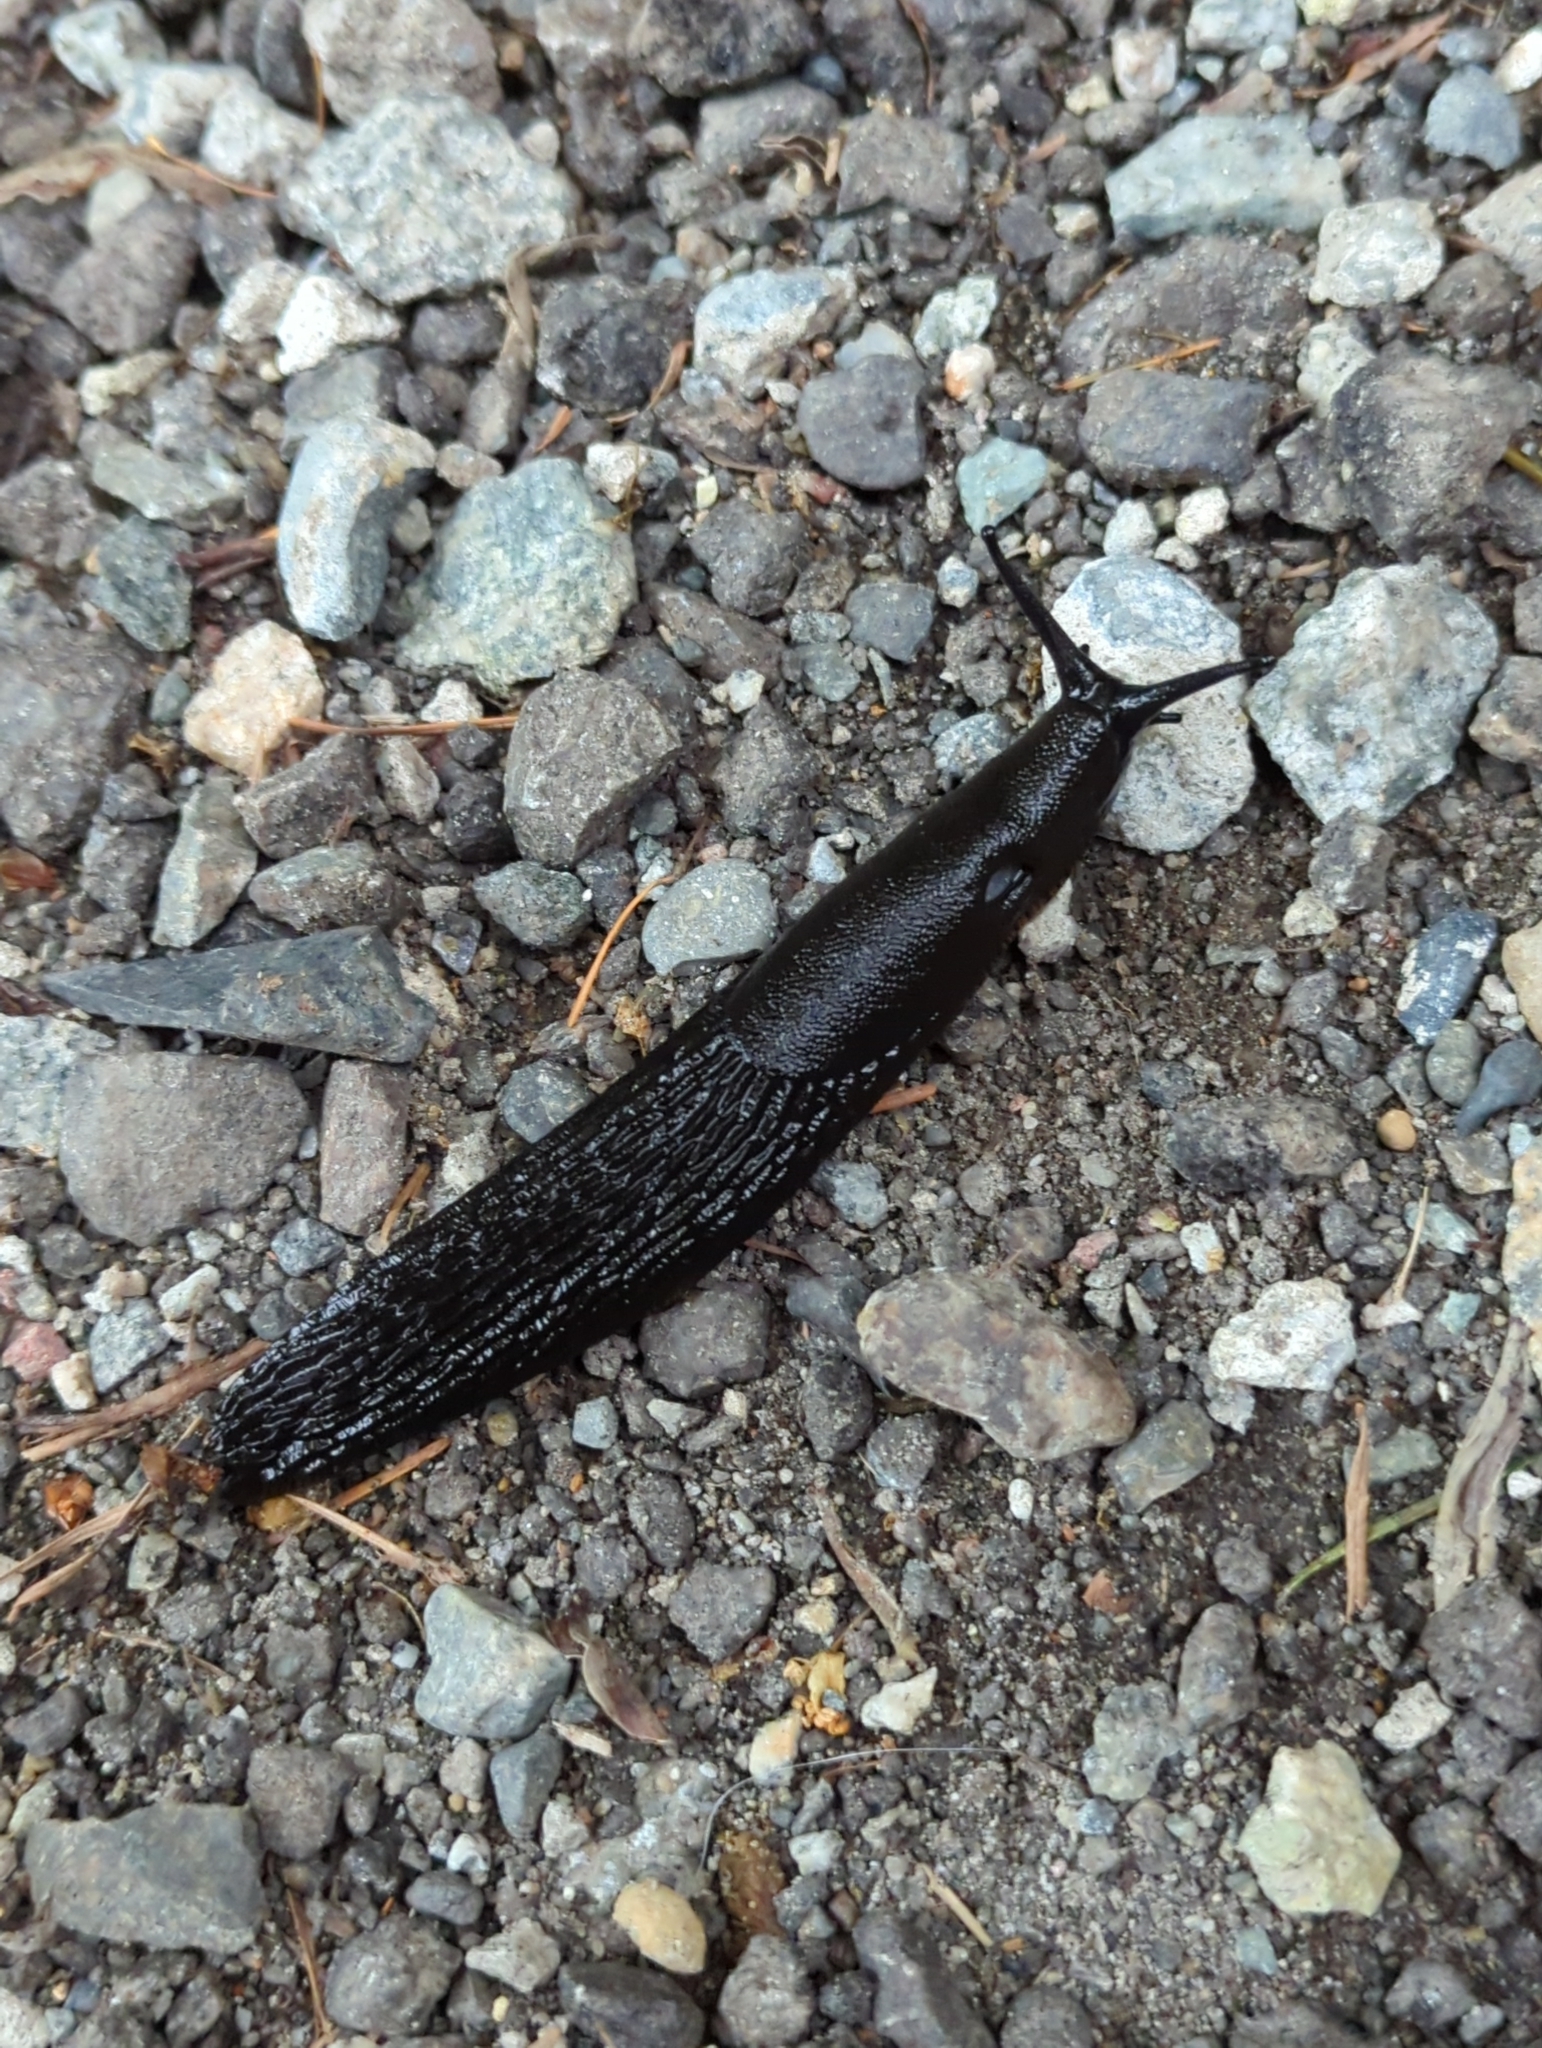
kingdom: Animalia
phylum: Mollusca
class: Gastropoda
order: Stylommatophora
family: Arionidae
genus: Arion
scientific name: Arion
